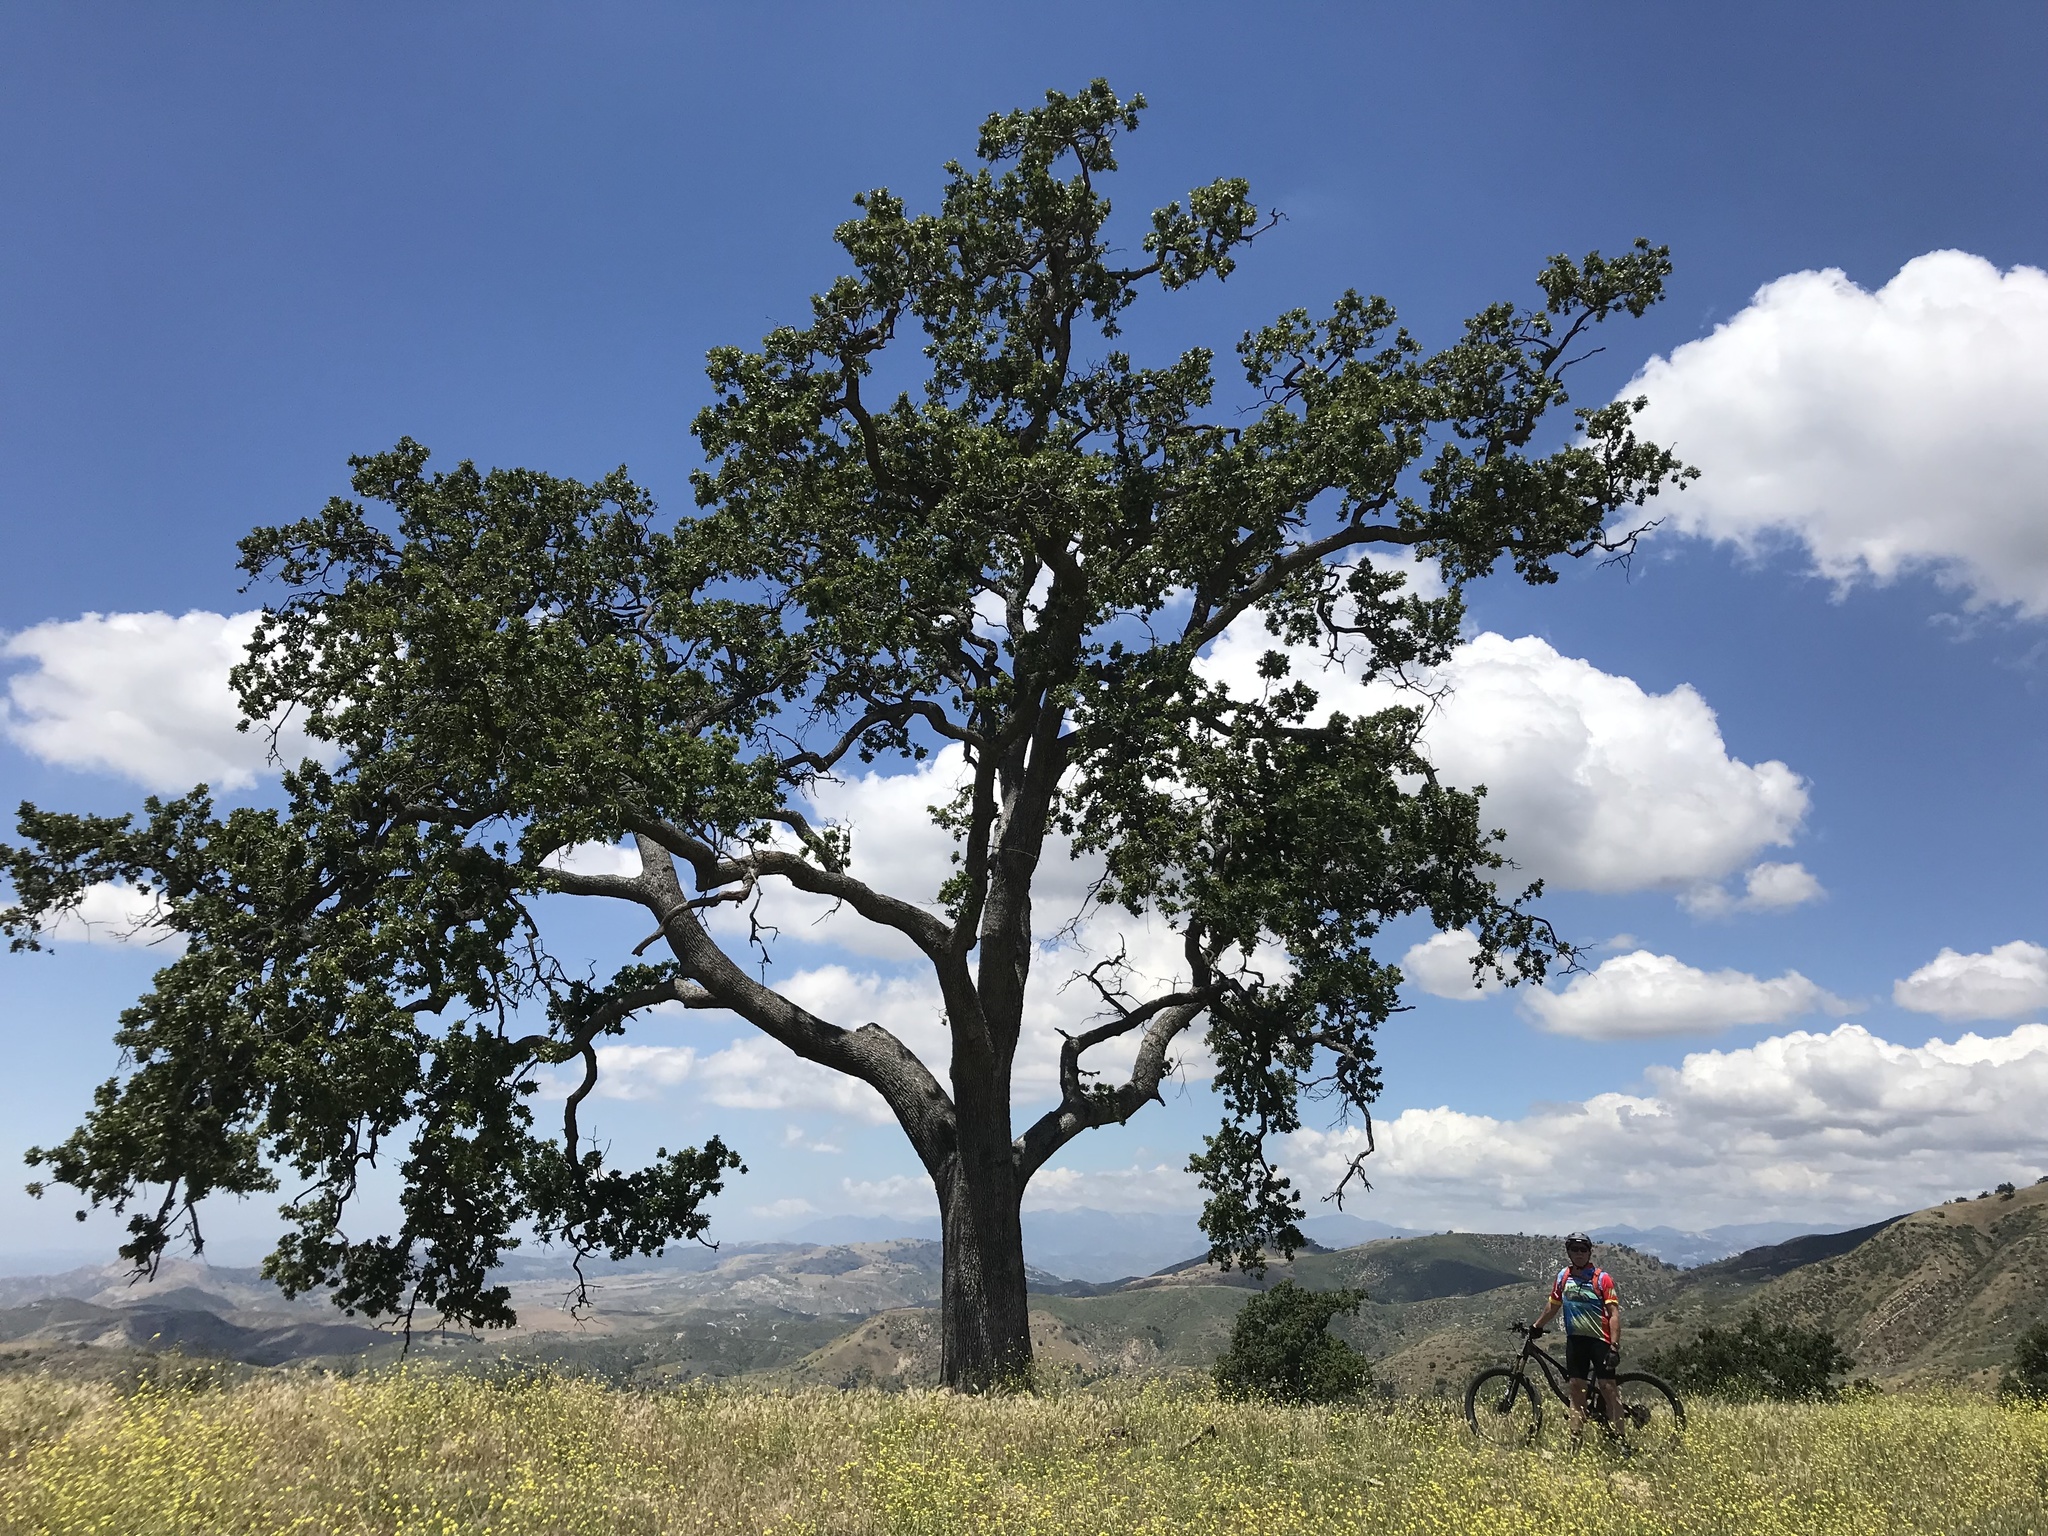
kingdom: Plantae
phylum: Tracheophyta
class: Magnoliopsida
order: Fagales
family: Fagaceae
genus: Quercus
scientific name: Quercus lobata
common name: Valley oak
